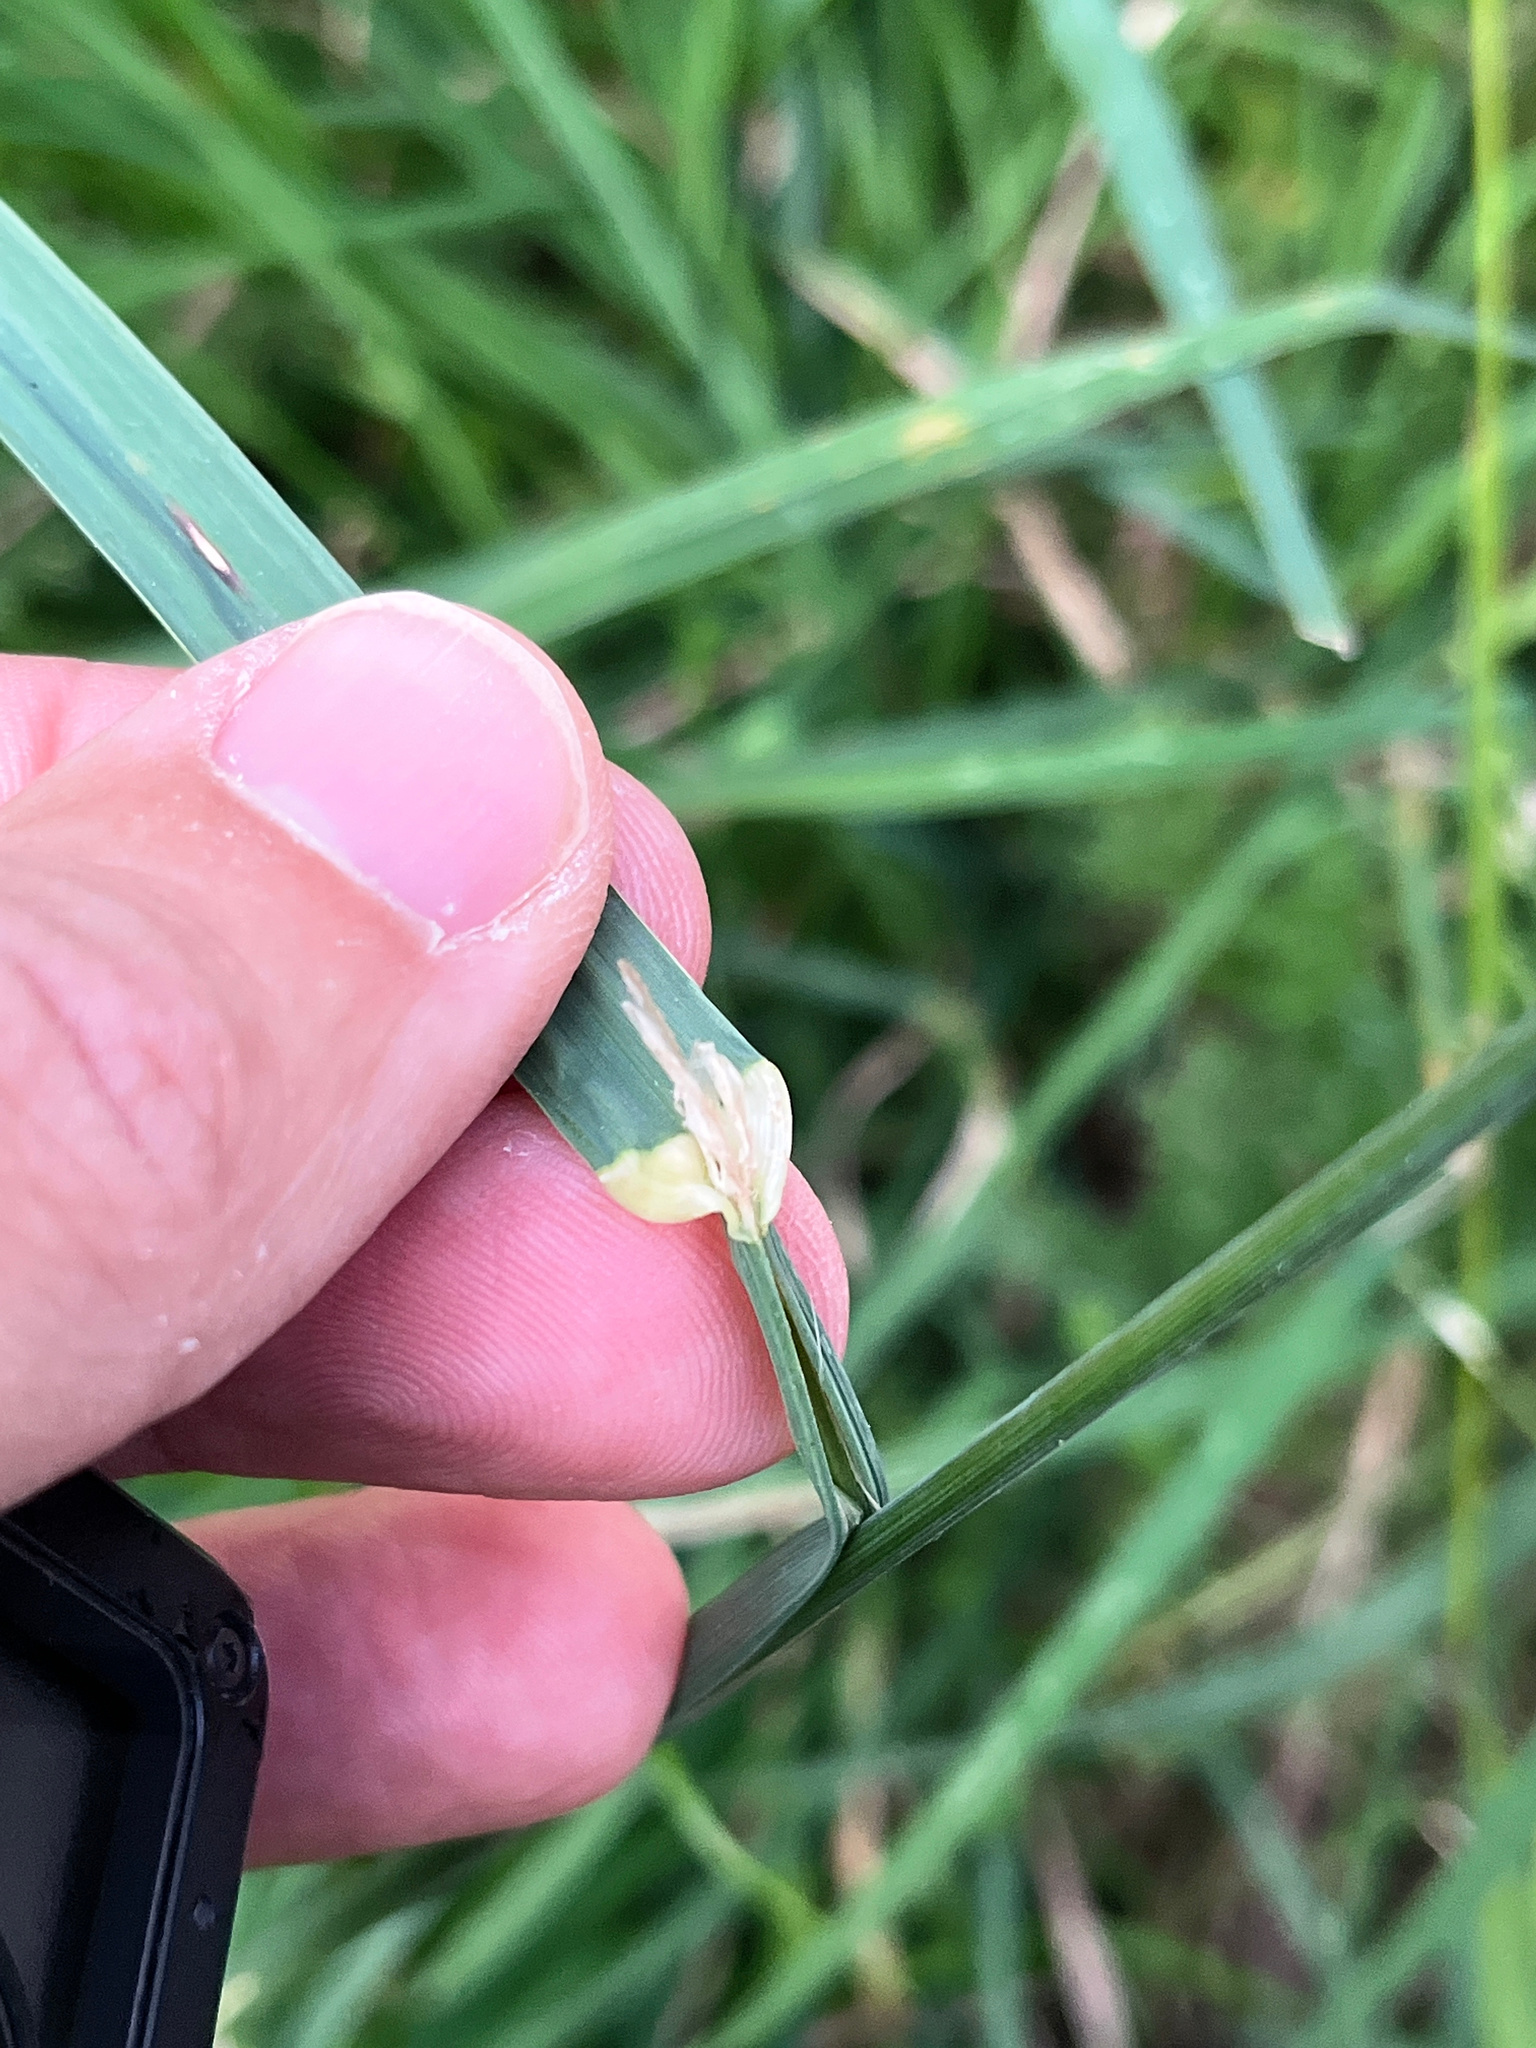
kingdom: Plantae
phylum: Tracheophyta
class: Liliopsida
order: Poales
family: Poaceae
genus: Dactylis
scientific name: Dactylis glomerata
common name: Orchardgrass
